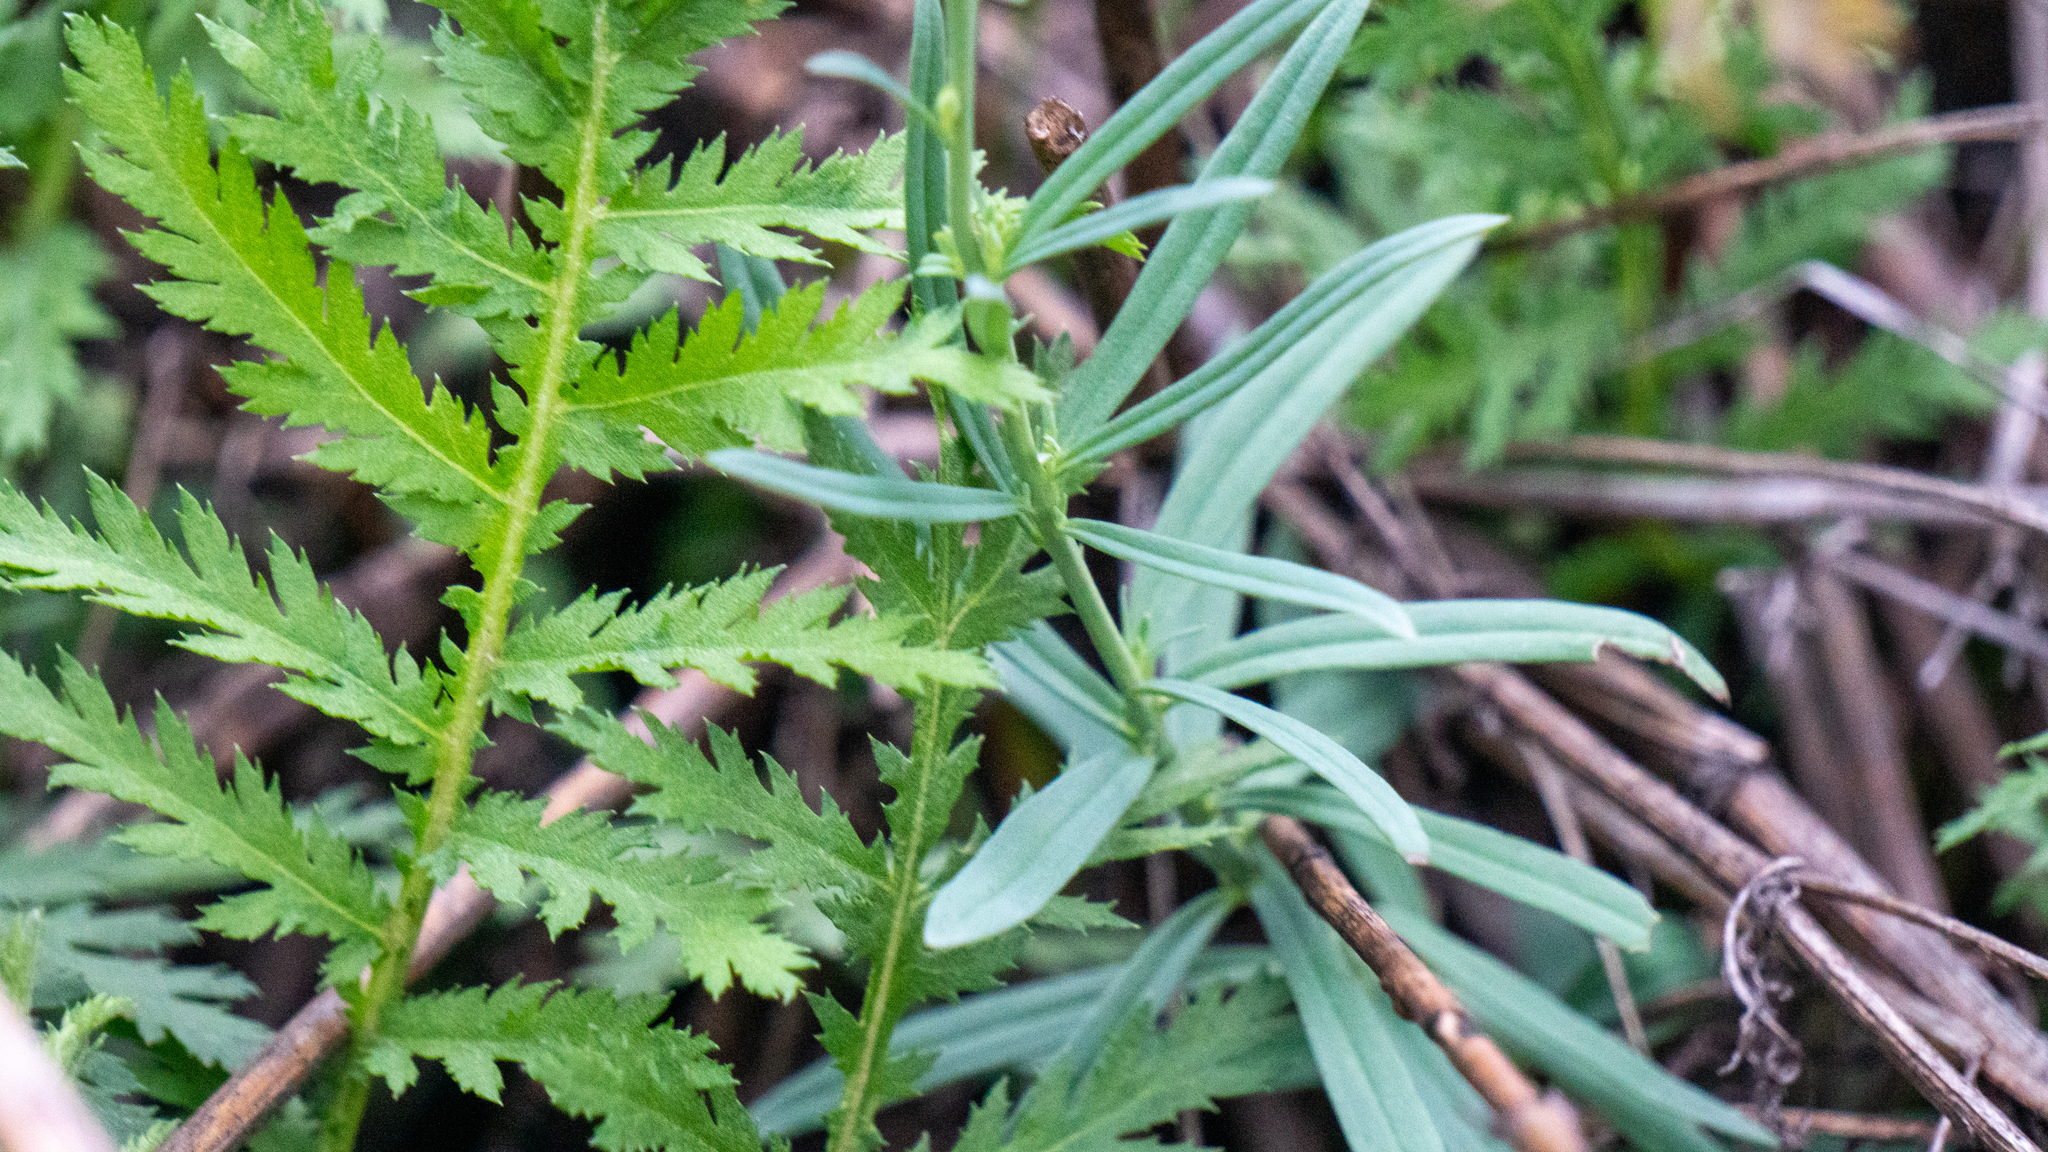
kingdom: Plantae
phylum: Tracheophyta
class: Magnoliopsida
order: Lamiales
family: Plantaginaceae
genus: Linaria
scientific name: Linaria vulgaris
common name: Butter and eggs
